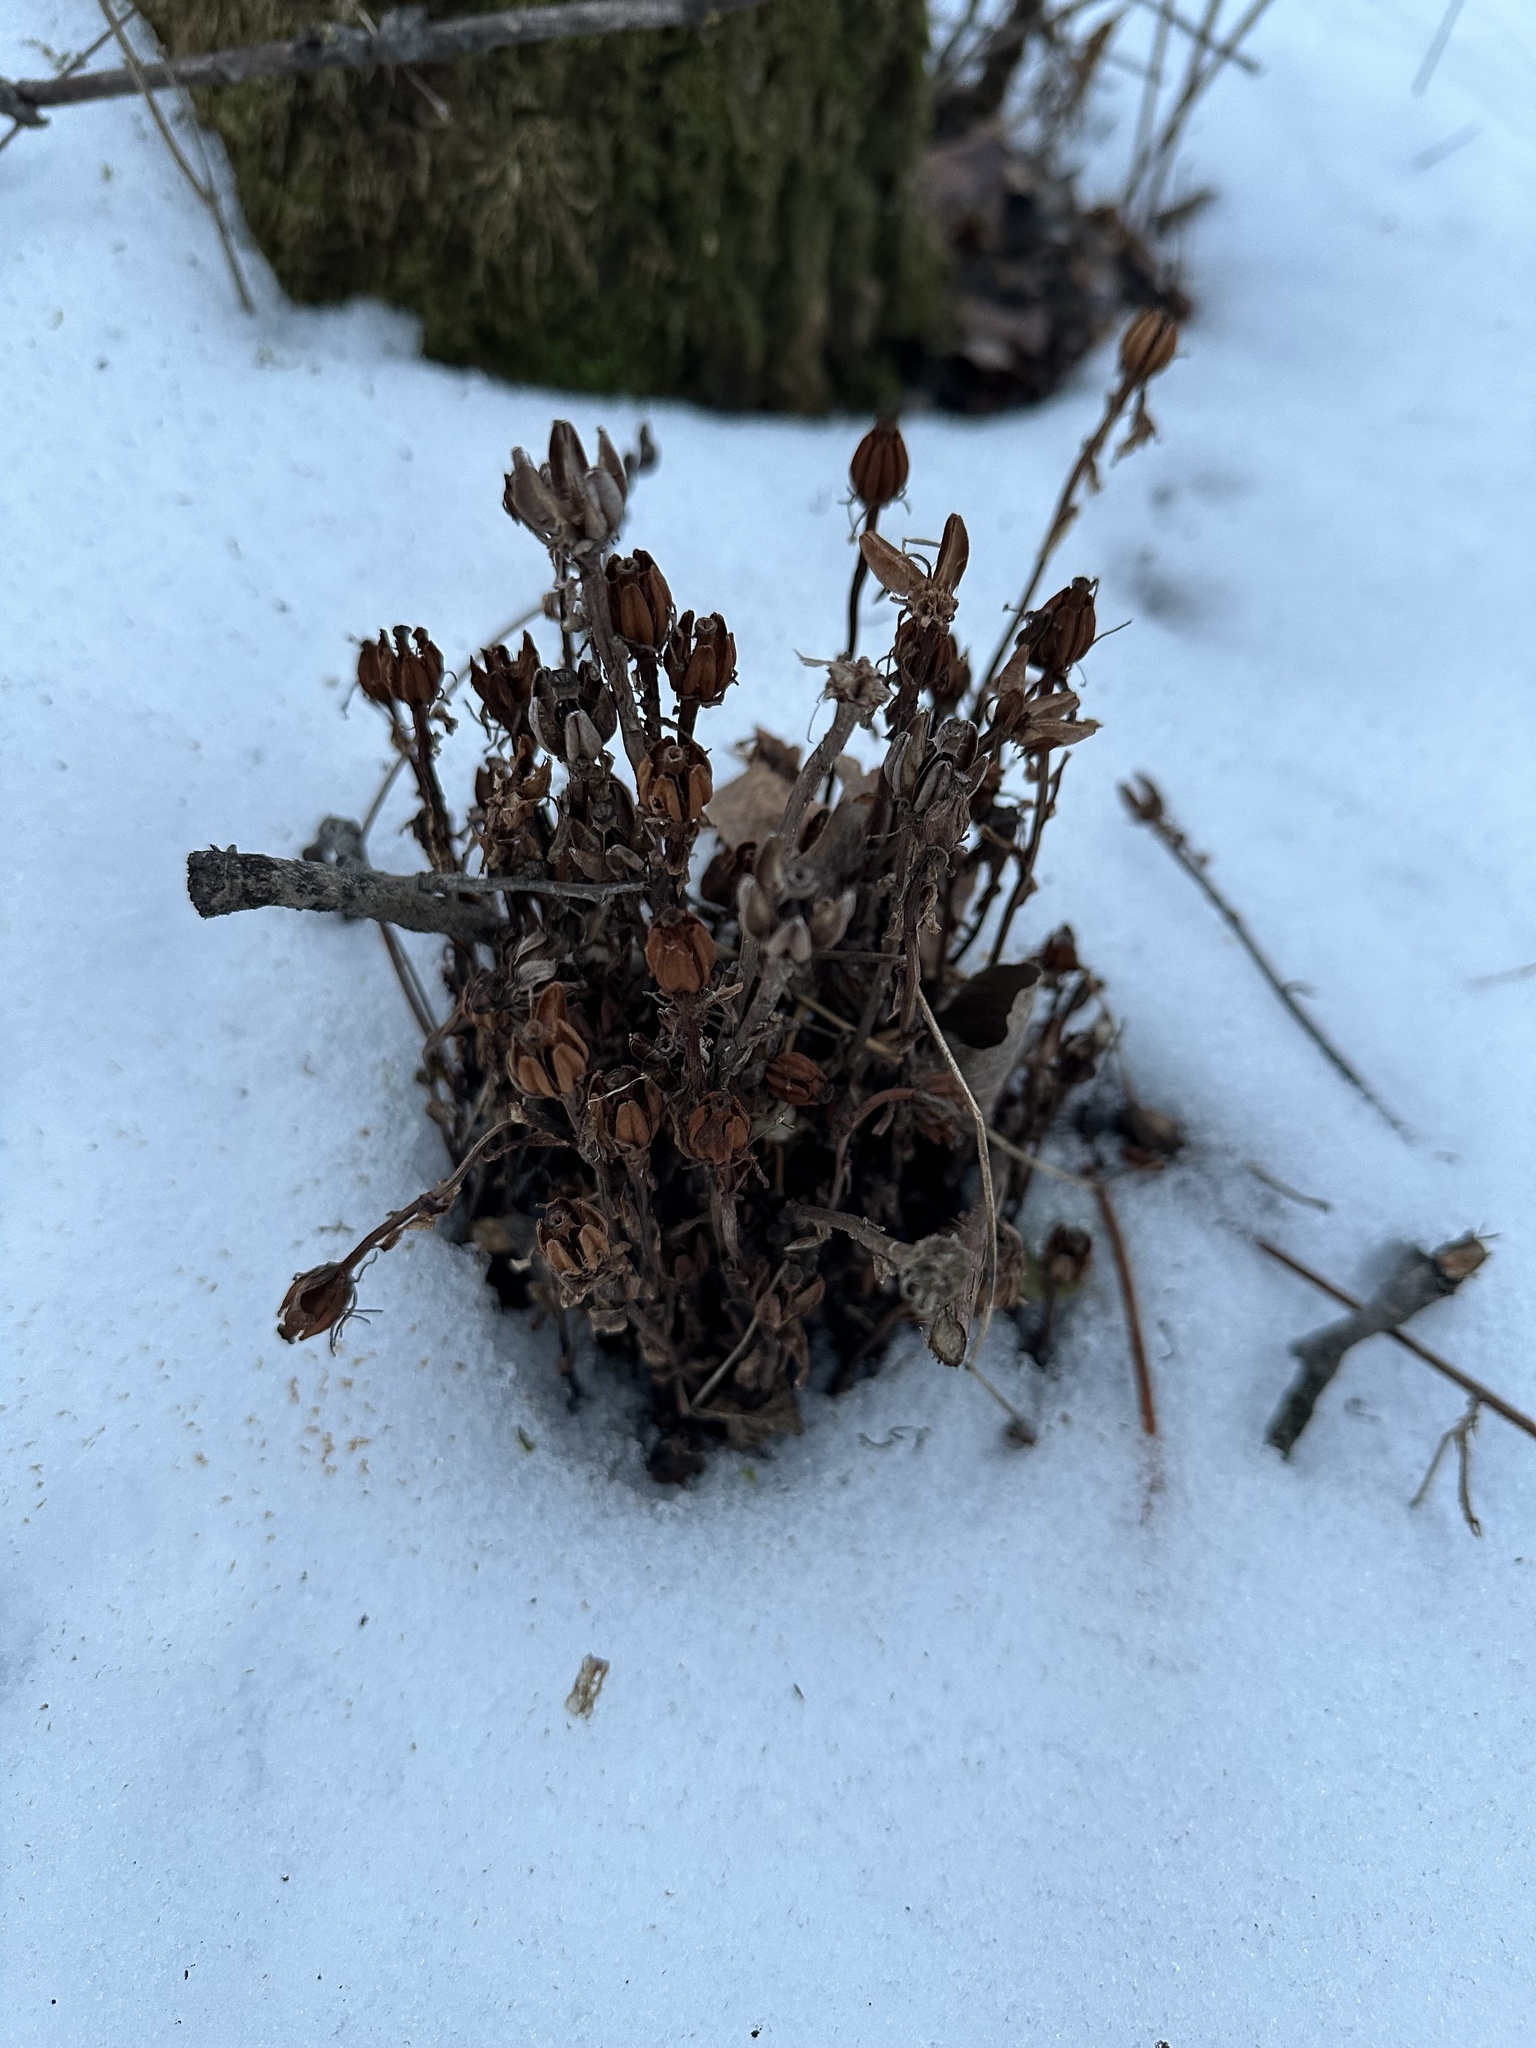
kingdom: Plantae
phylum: Tracheophyta
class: Magnoliopsida
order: Ericales
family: Ericaceae
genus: Monotropa
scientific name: Monotropa uniflora
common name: Convulsion root
